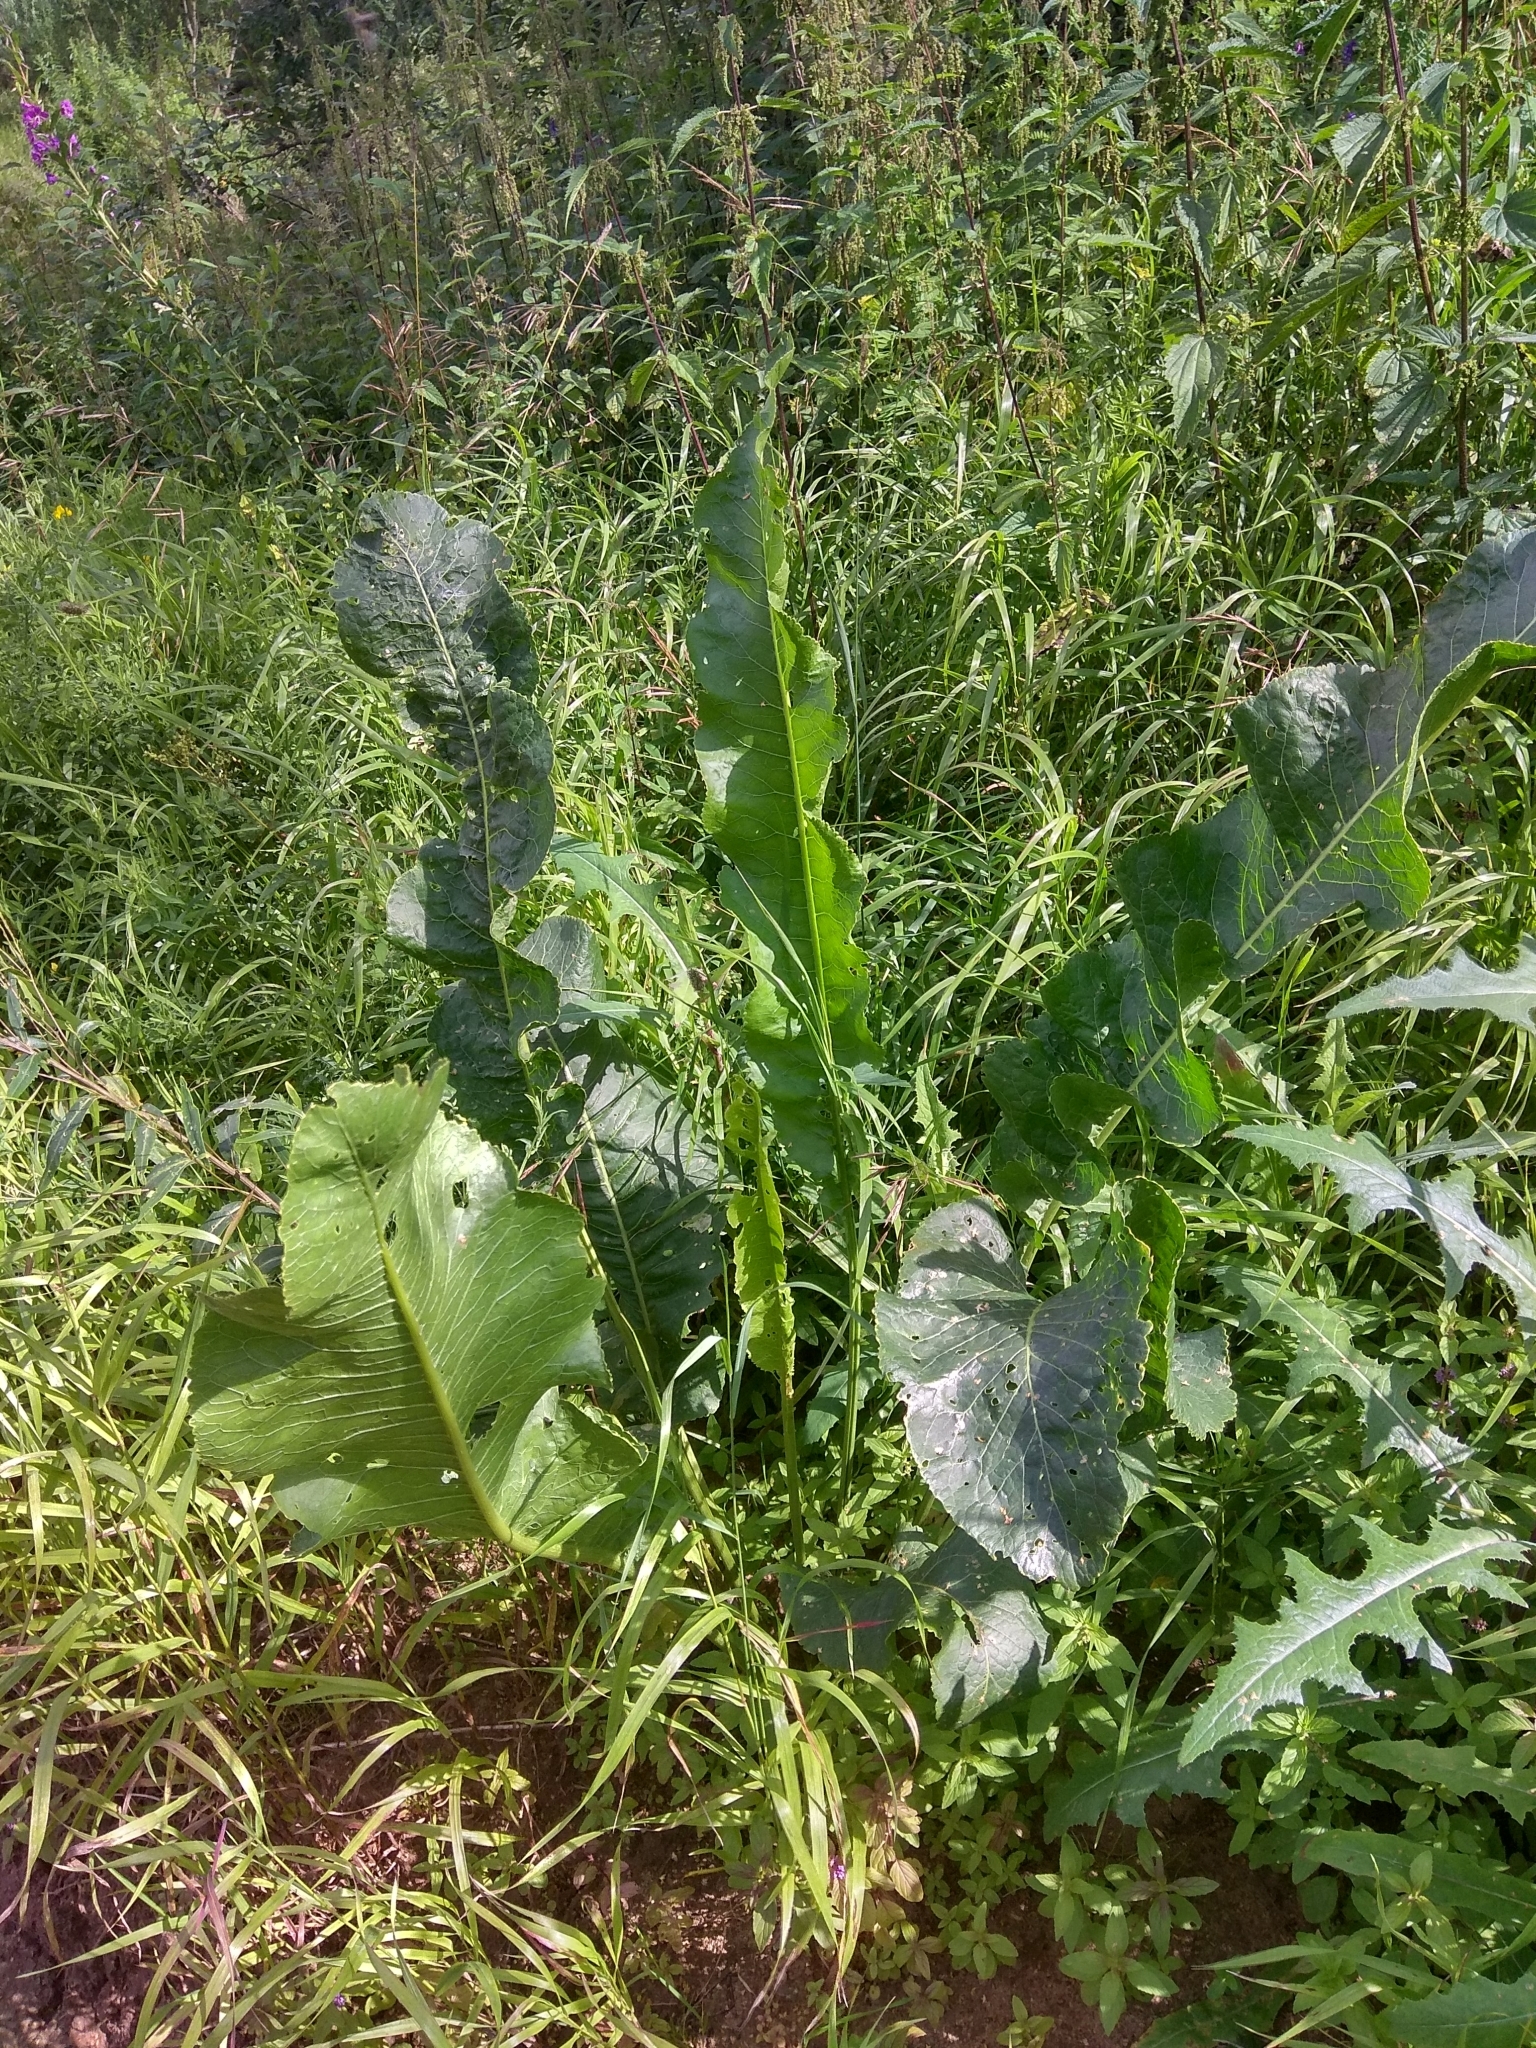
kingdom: Plantae
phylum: Tracheophyta
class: Magnoliopsida
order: Brassicales
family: Brassicaceae
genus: Armoracia
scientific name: Armoracia rusticana
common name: Horseradish
